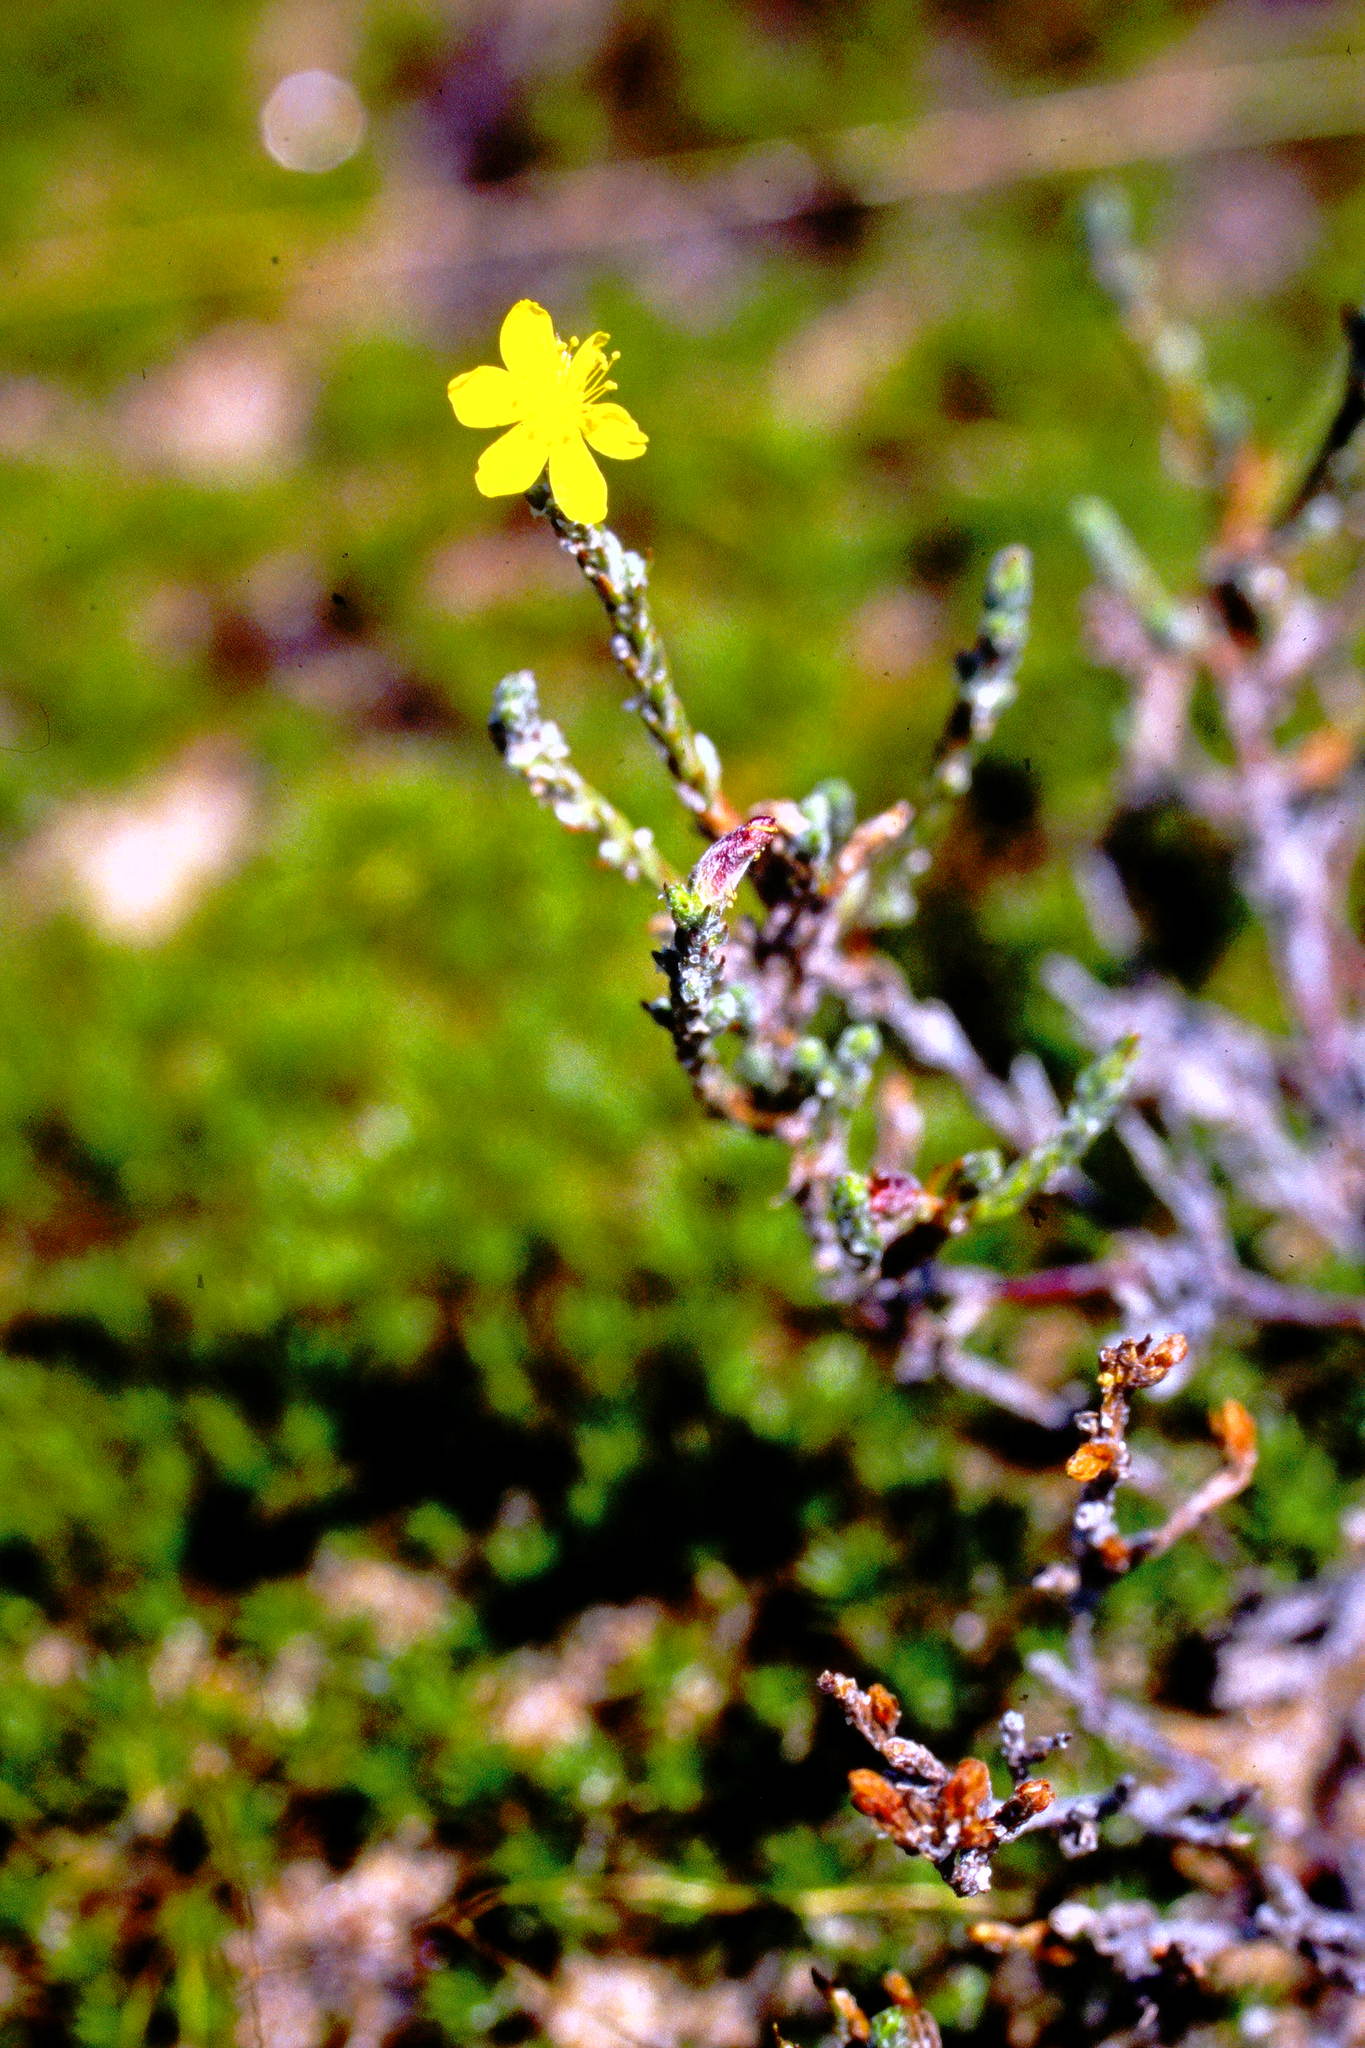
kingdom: Plantae
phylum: Tracheophyta
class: Magnoliopsida
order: Malvales
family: Cistaceae
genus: Hudsonia
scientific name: Hudsonia tomentosa
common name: Beach-heath
